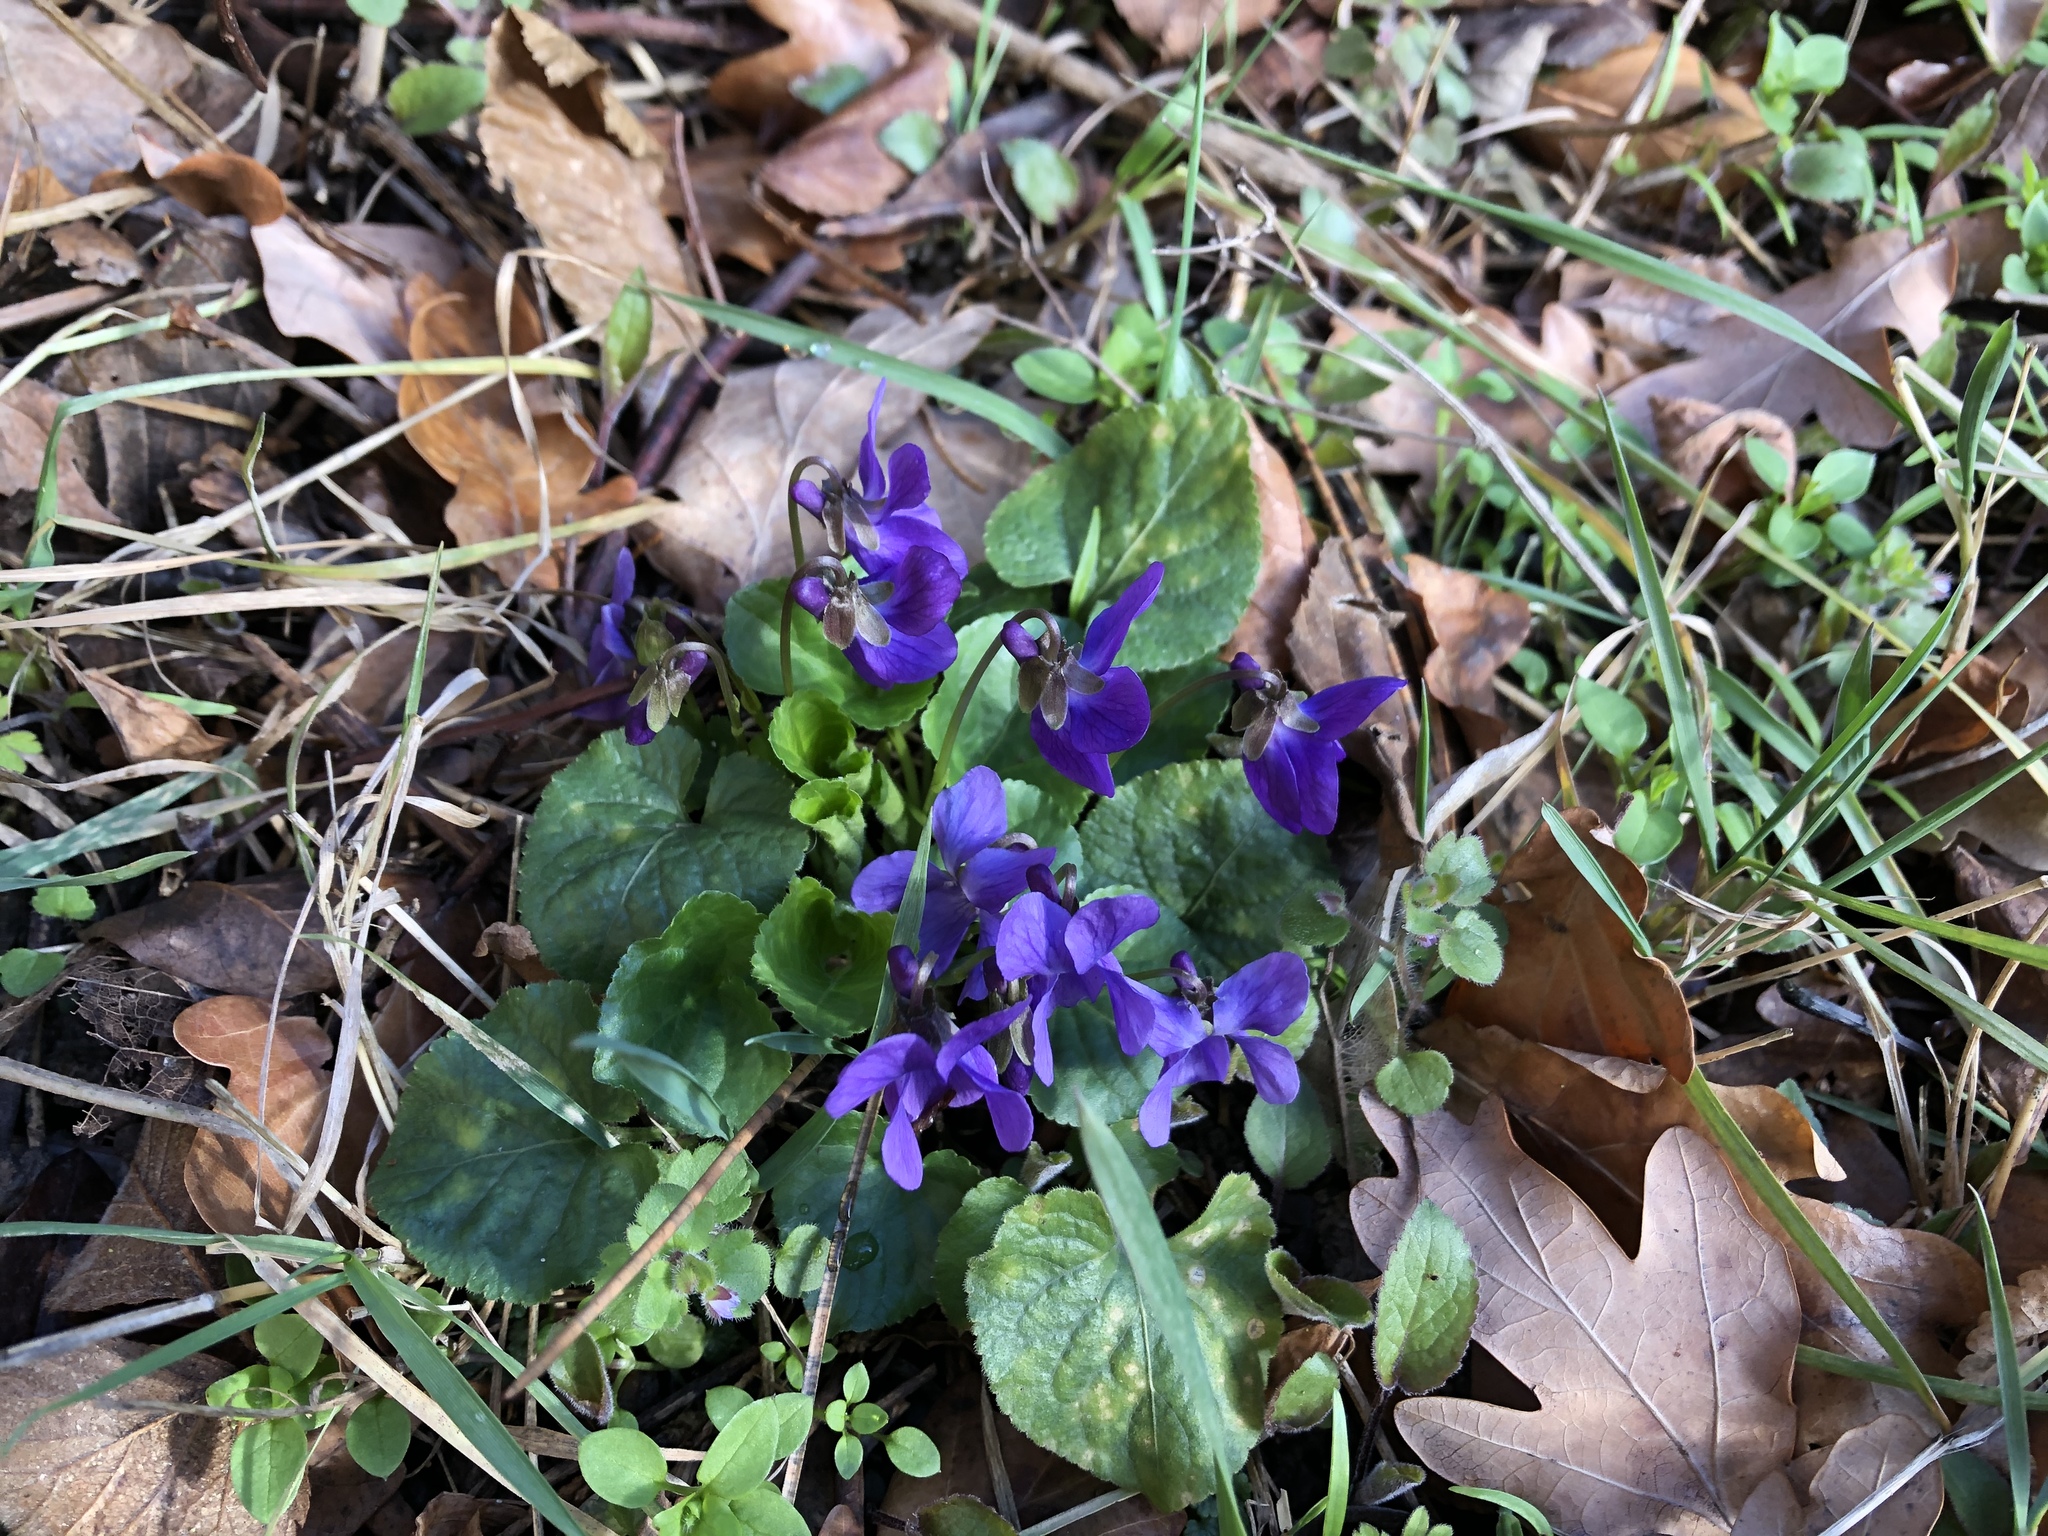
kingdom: Plantae
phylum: Tracheophyta
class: Magnoliopsida
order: Malpighiales
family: Violaceae
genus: Viola
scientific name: Viola odorata
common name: Sweet violet
